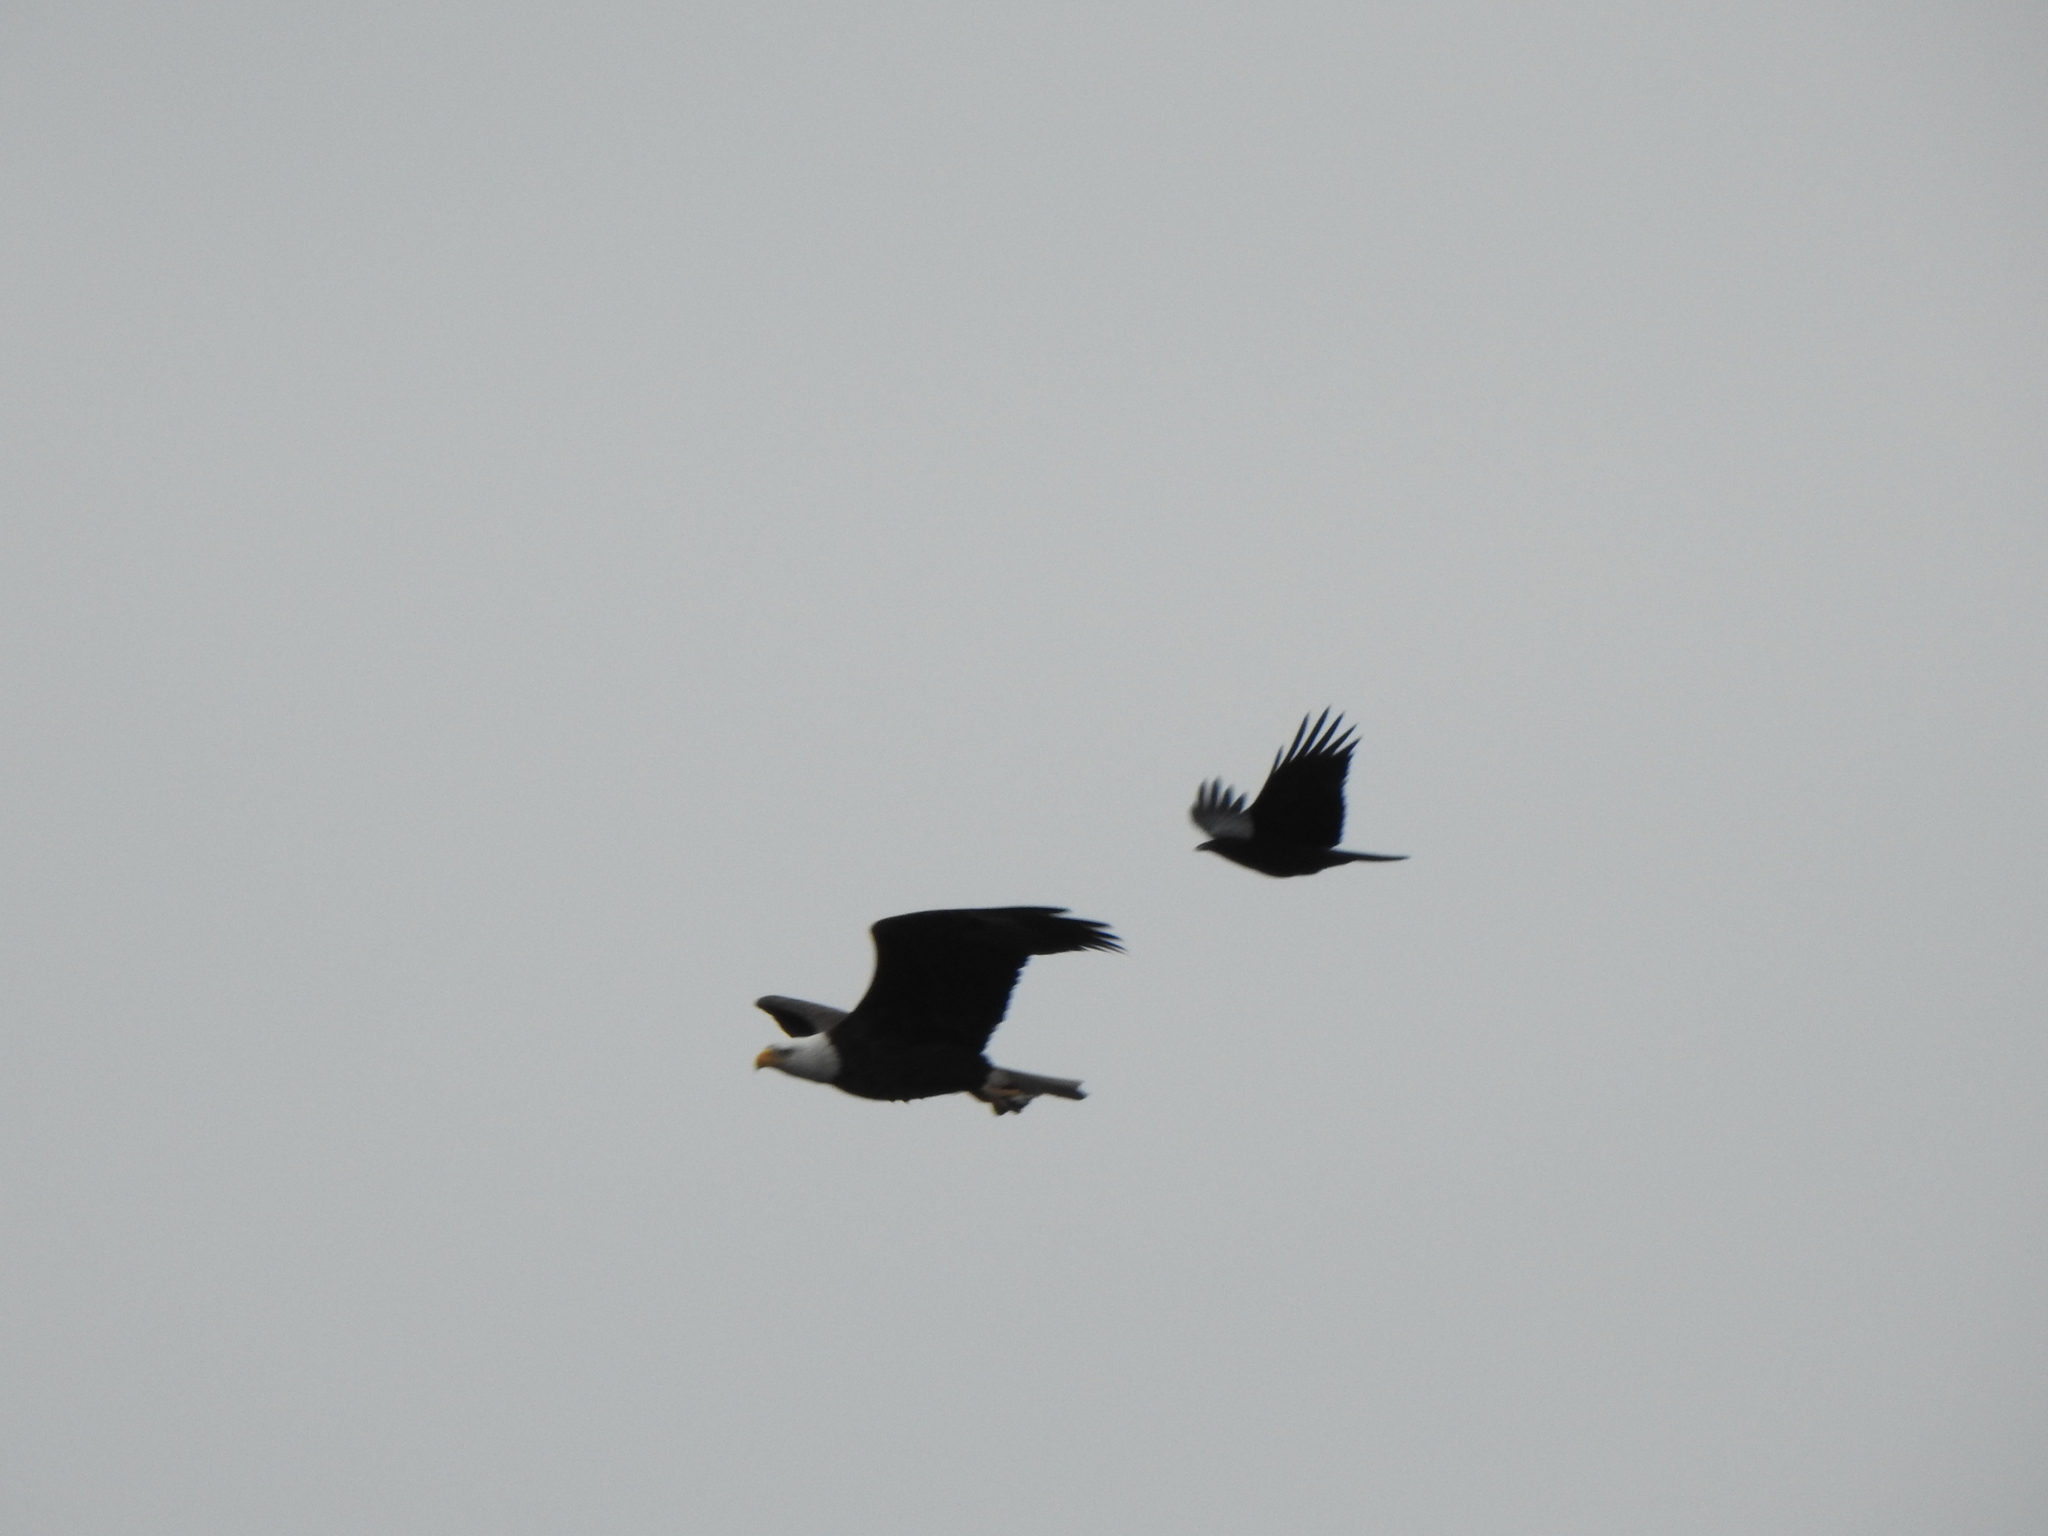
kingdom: Animalia
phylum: Chordata
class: Aves
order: Accipitriformes
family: Accipitridae
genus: Haliaeetus
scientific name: Haliaeetus leucocephalus
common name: Bald eagle
